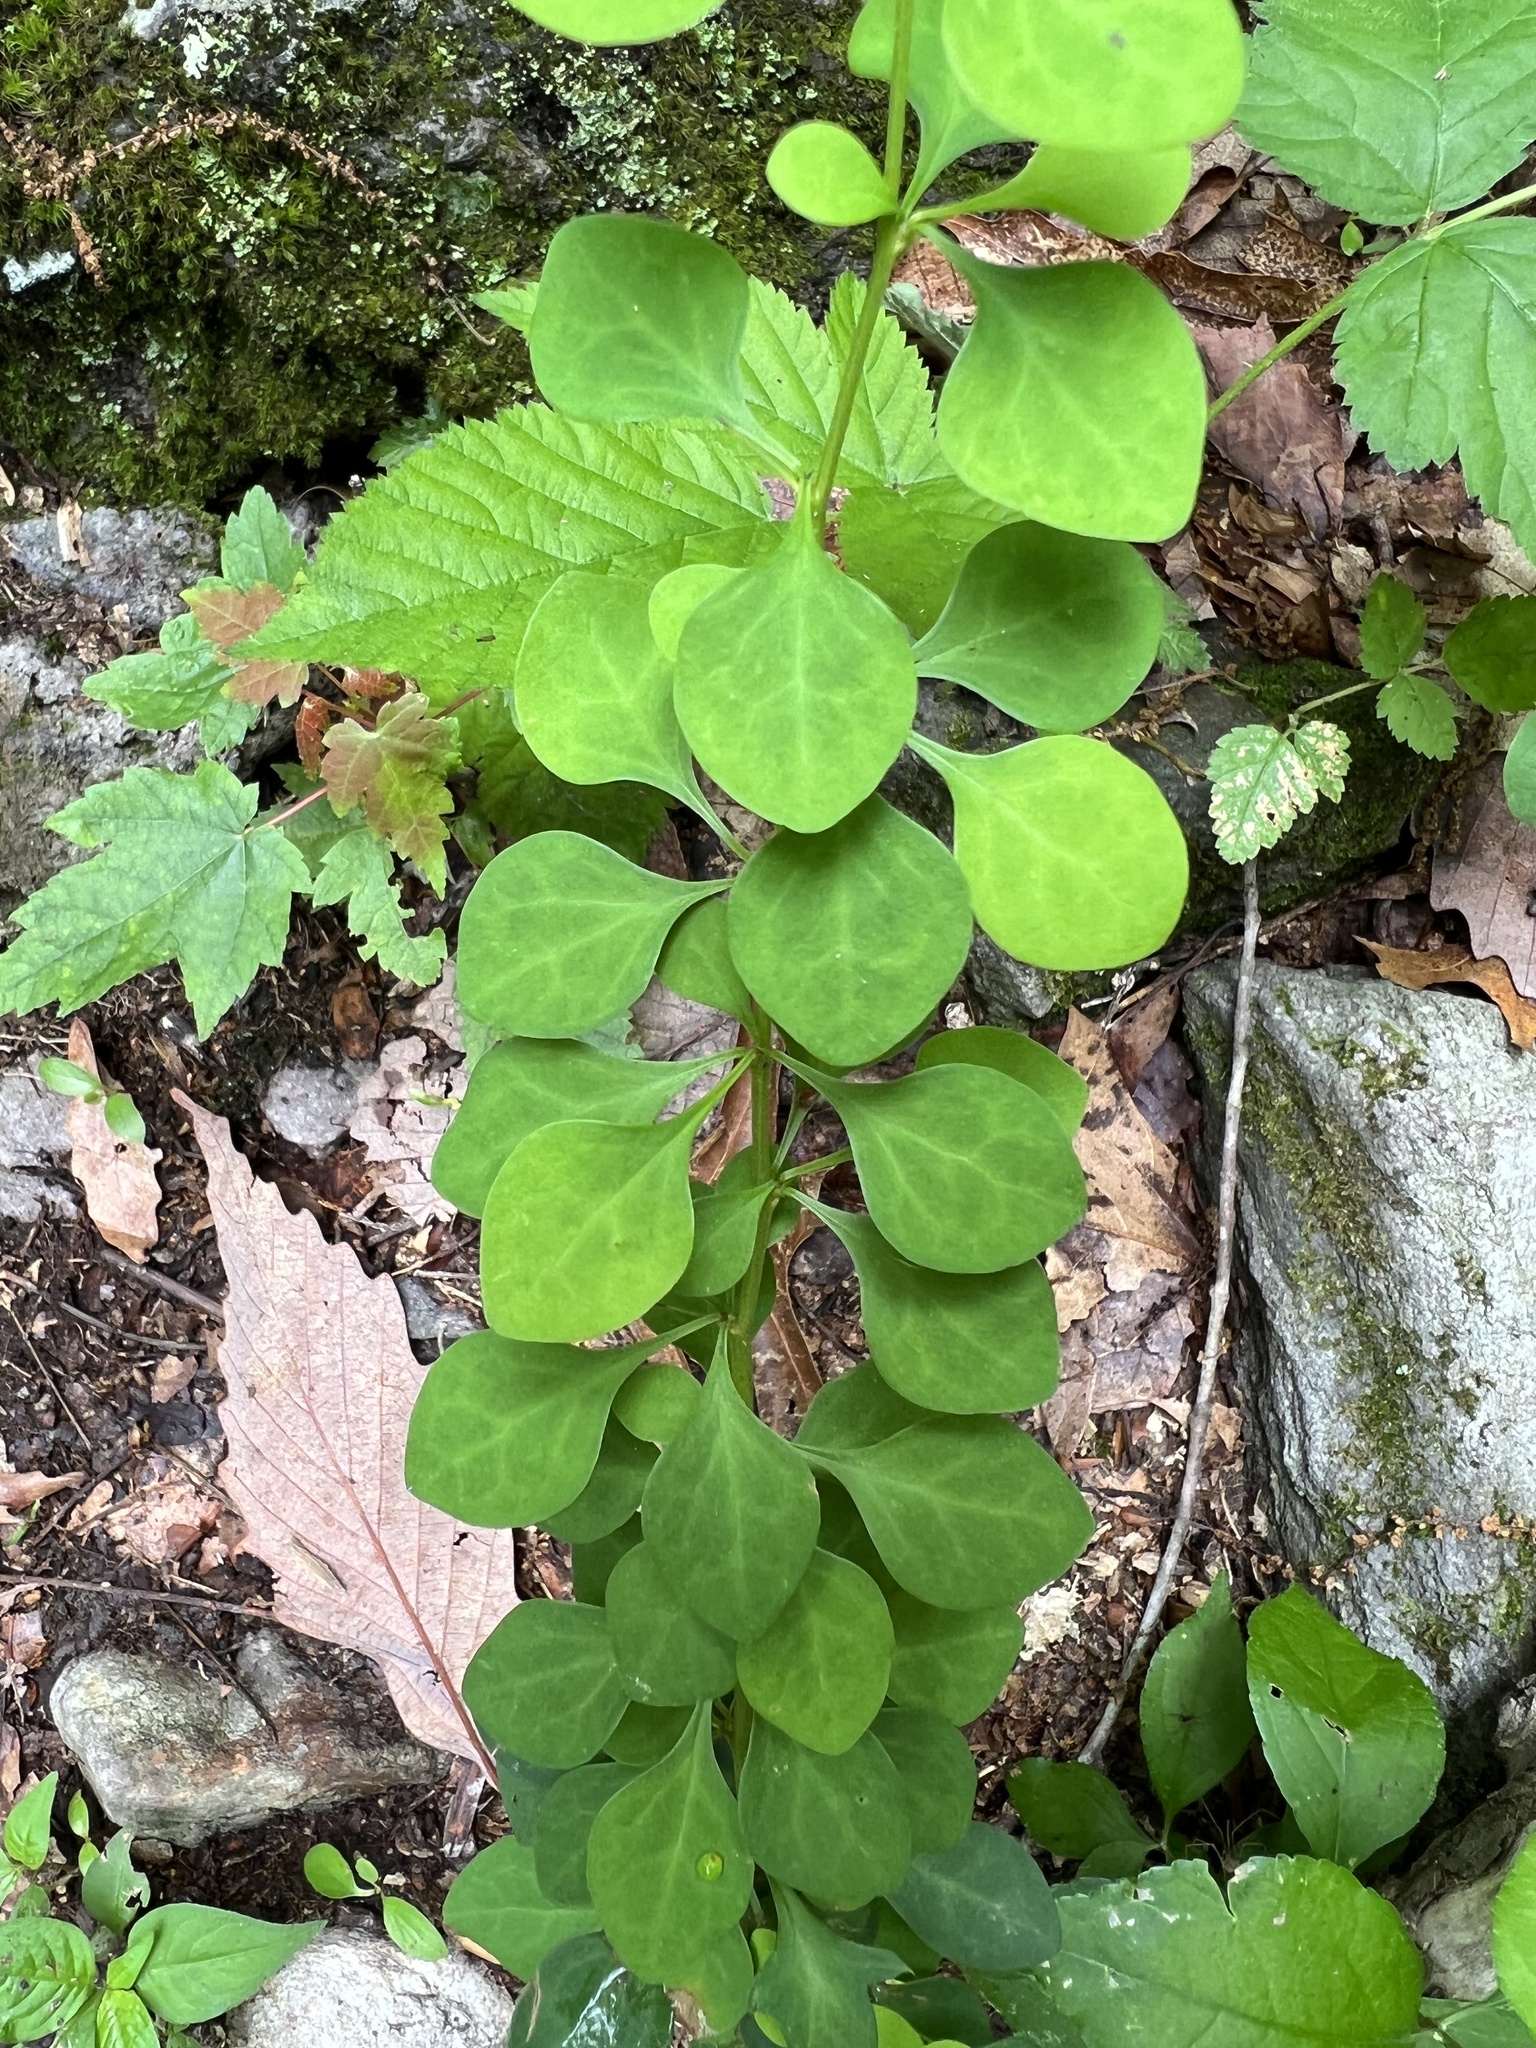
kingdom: Plantae
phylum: Tracheophyta
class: Magnoliopsida
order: Ranunculales
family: Berberidaceae
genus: Berberis
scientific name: Berberis thunbergii
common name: Japanese barberry
